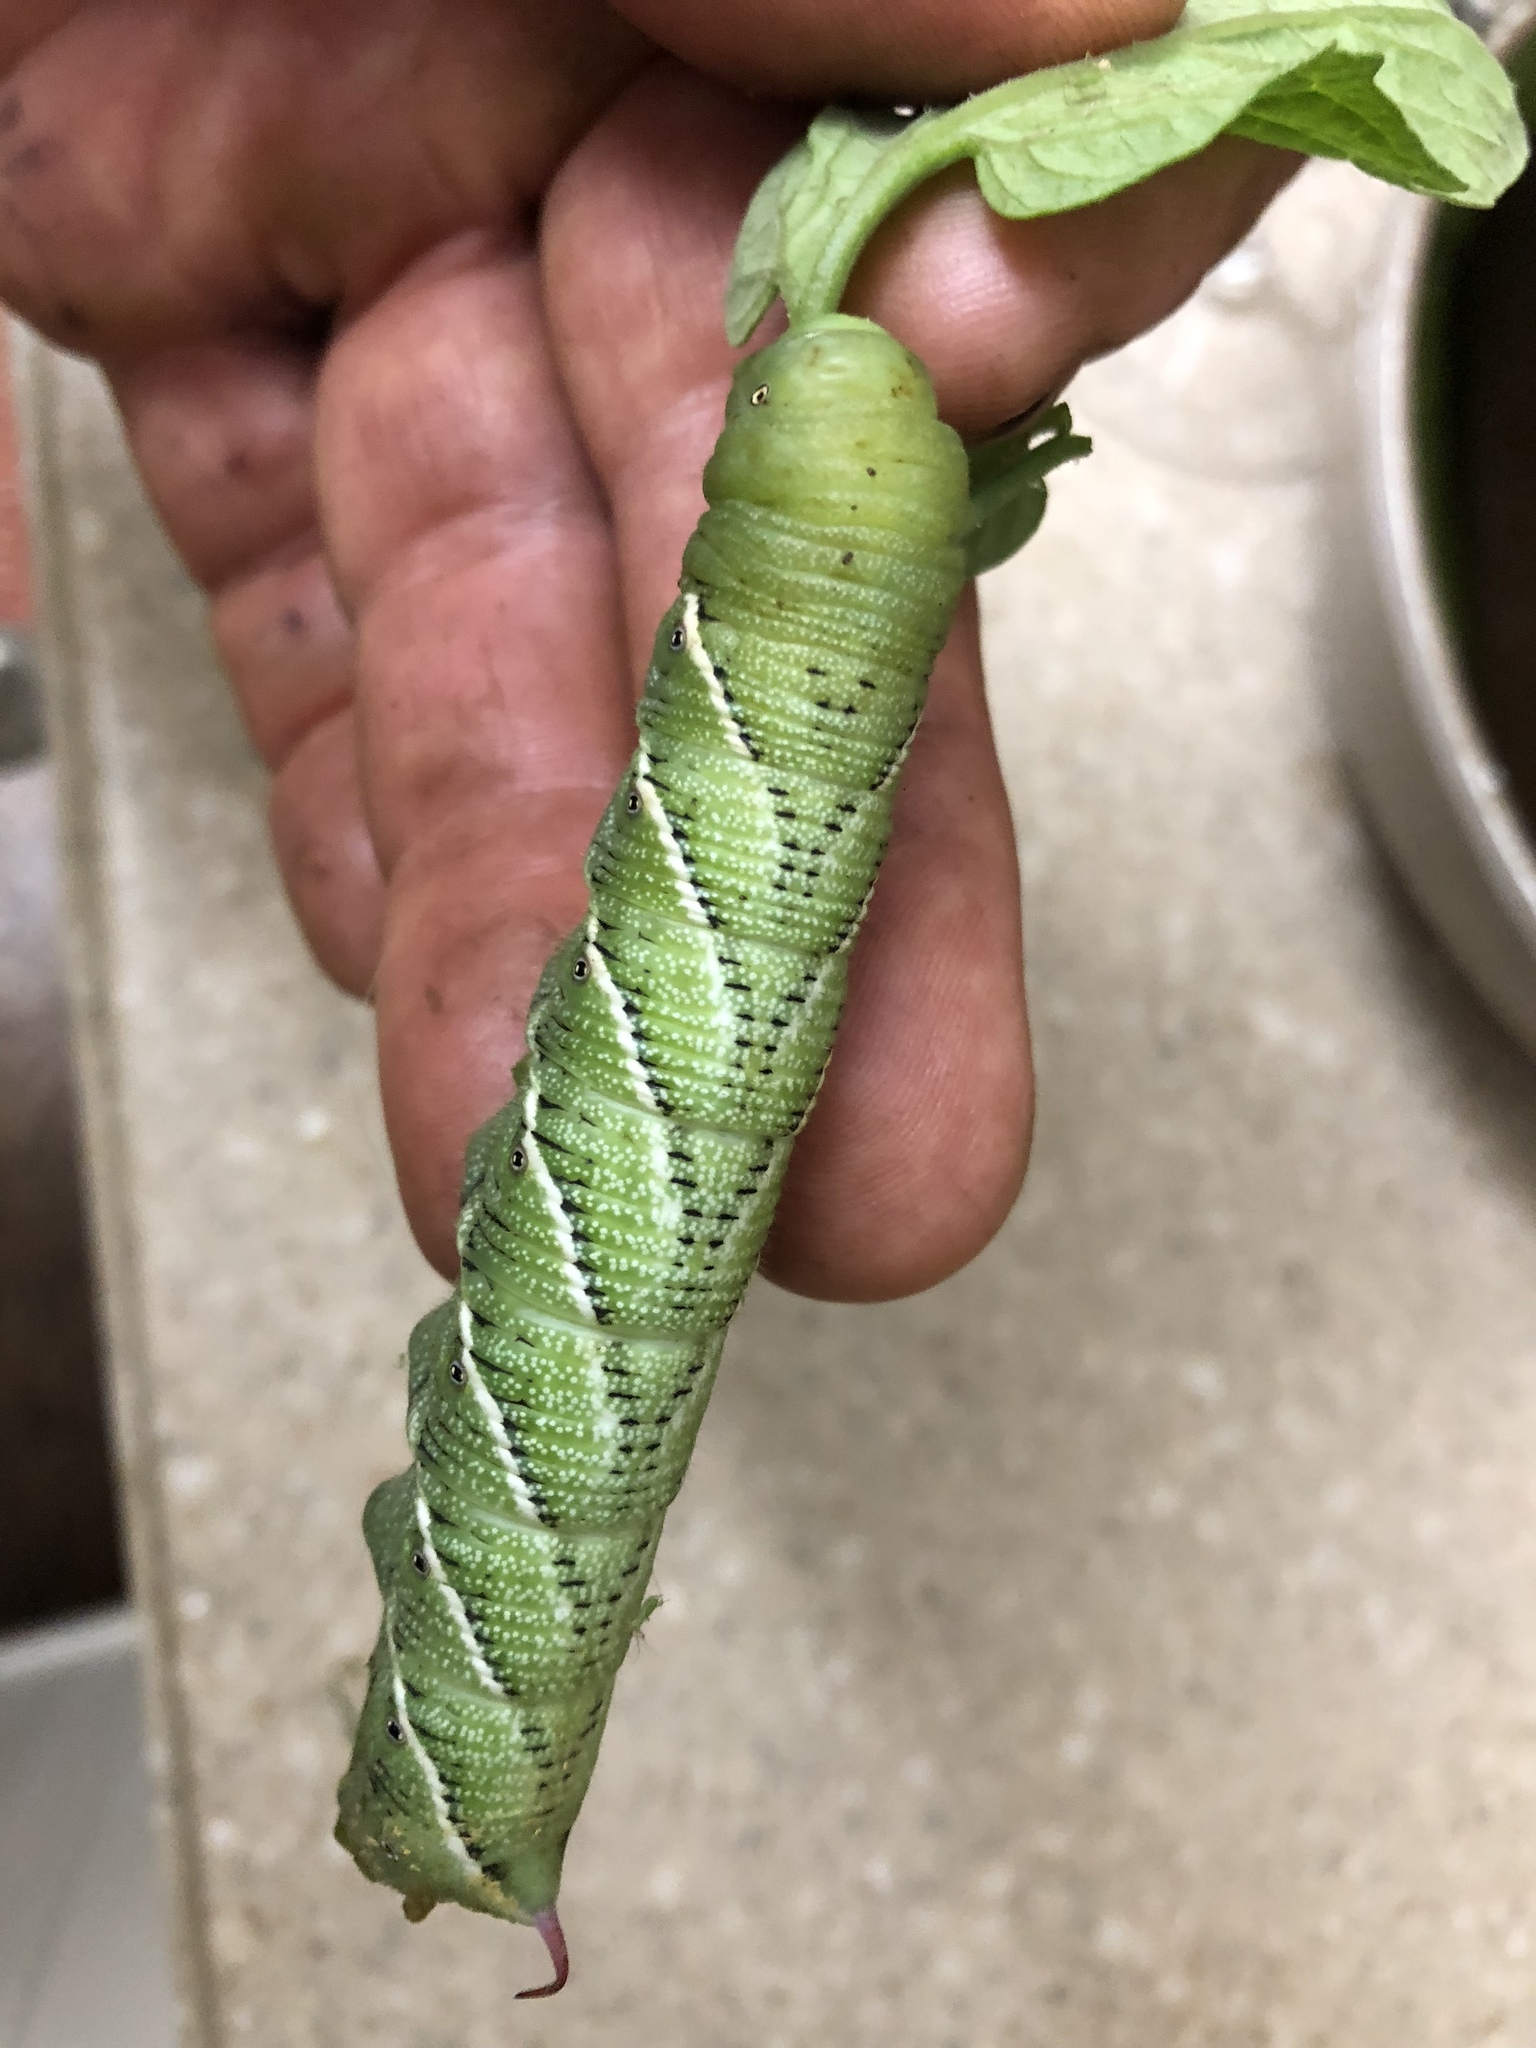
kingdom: Animalia
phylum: Arthropoda
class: Insecta
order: Lepidoptera
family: Sphingidae
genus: Manduca
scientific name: Manduca sexta
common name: Carolina sphinx
